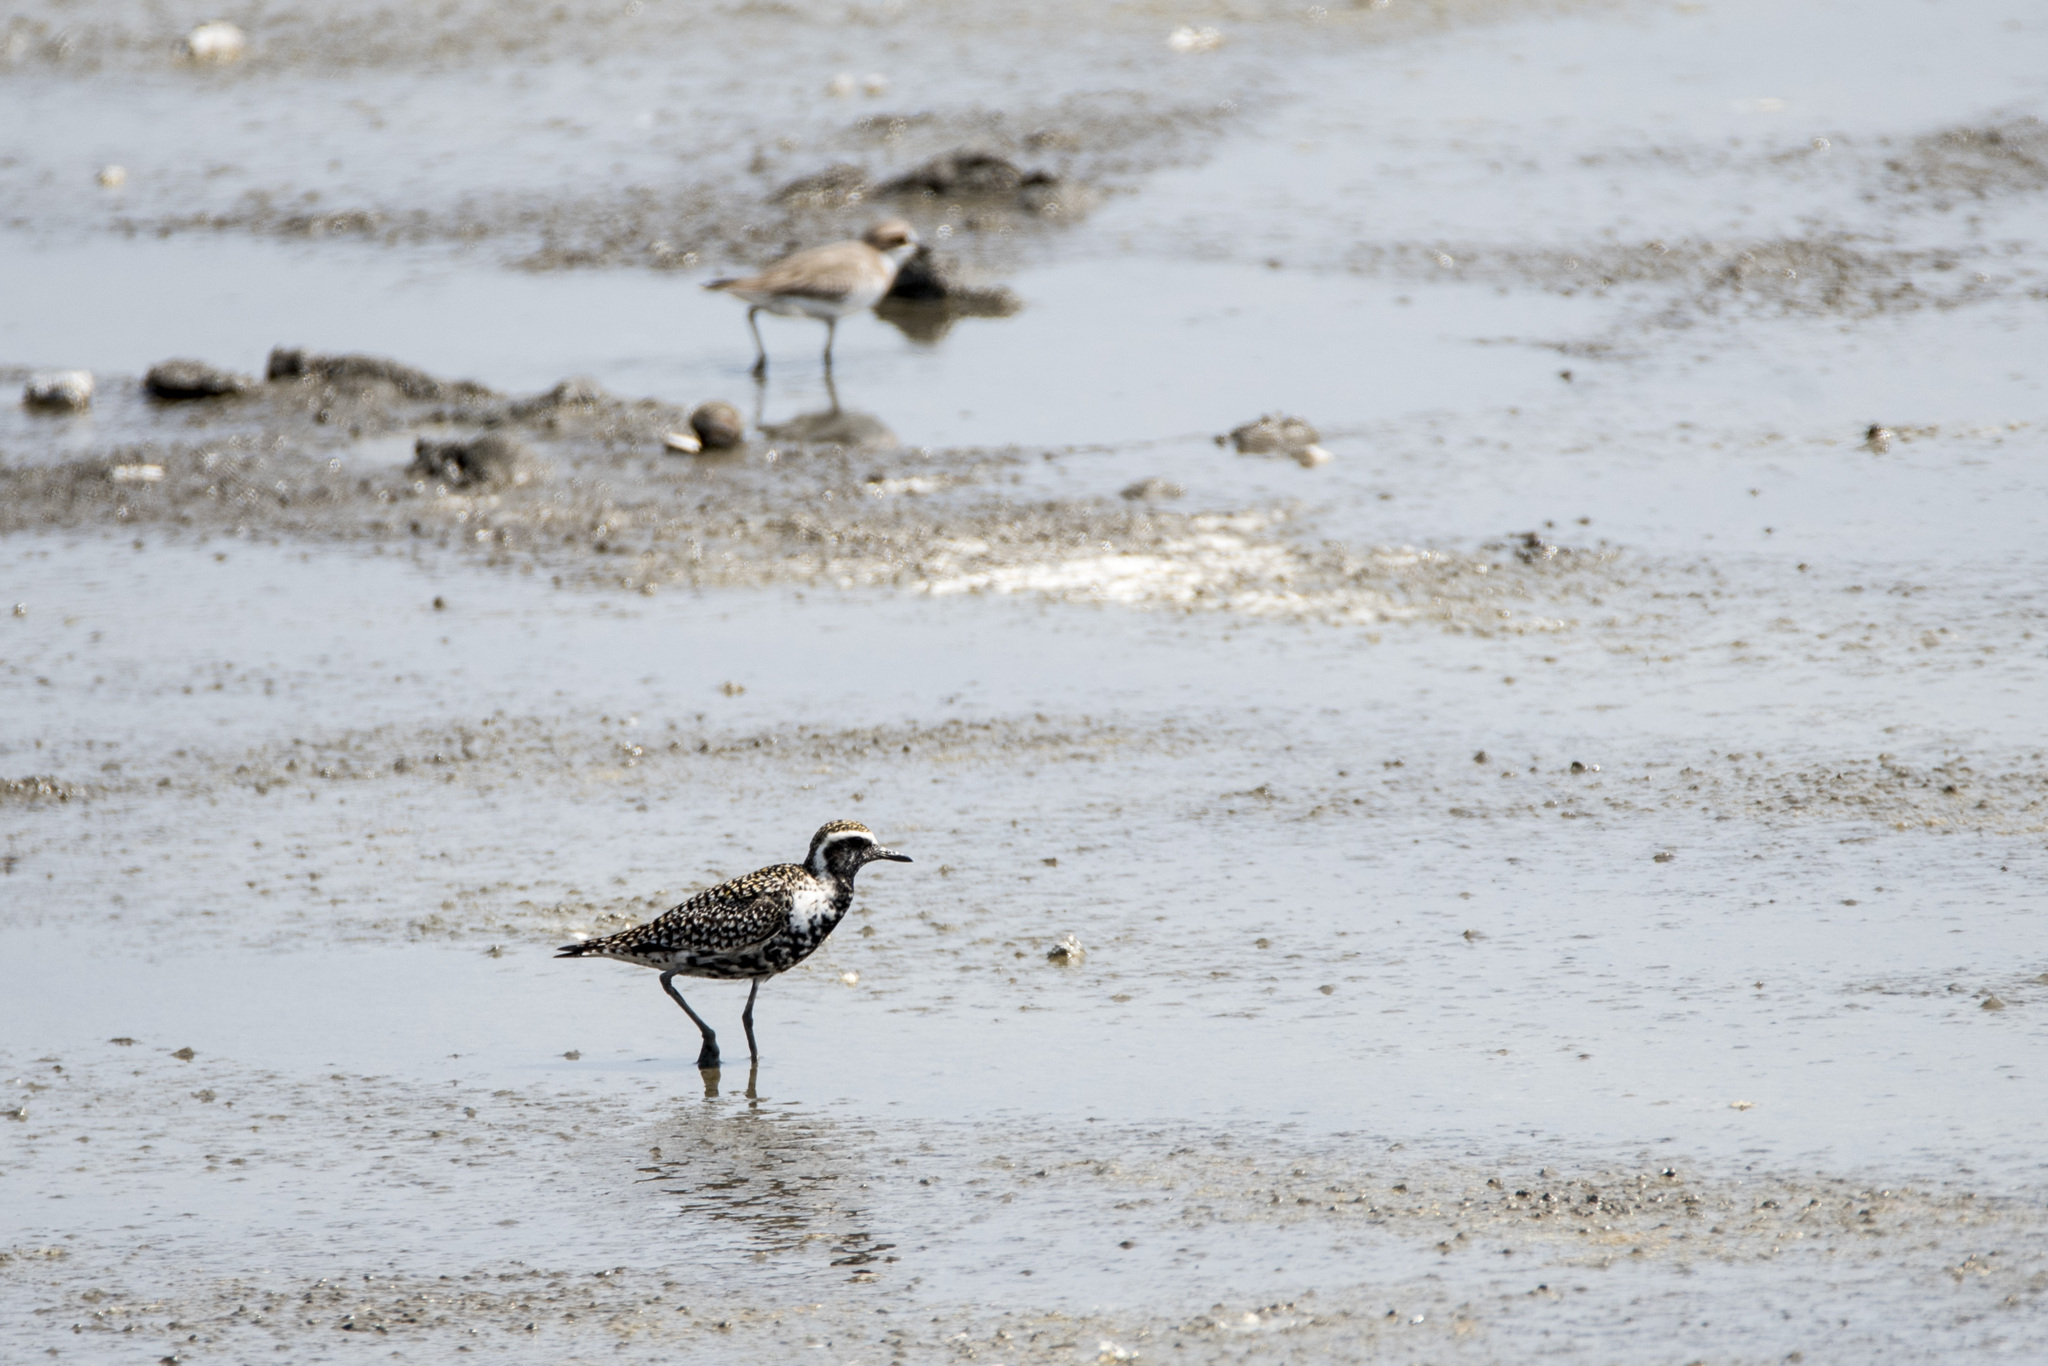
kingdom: Animalia
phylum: Chordata
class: Aves
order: Charadriiformes
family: Charadriidae
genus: Pluvialis
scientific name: Pluvialis fulva
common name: Pacific golden plover
